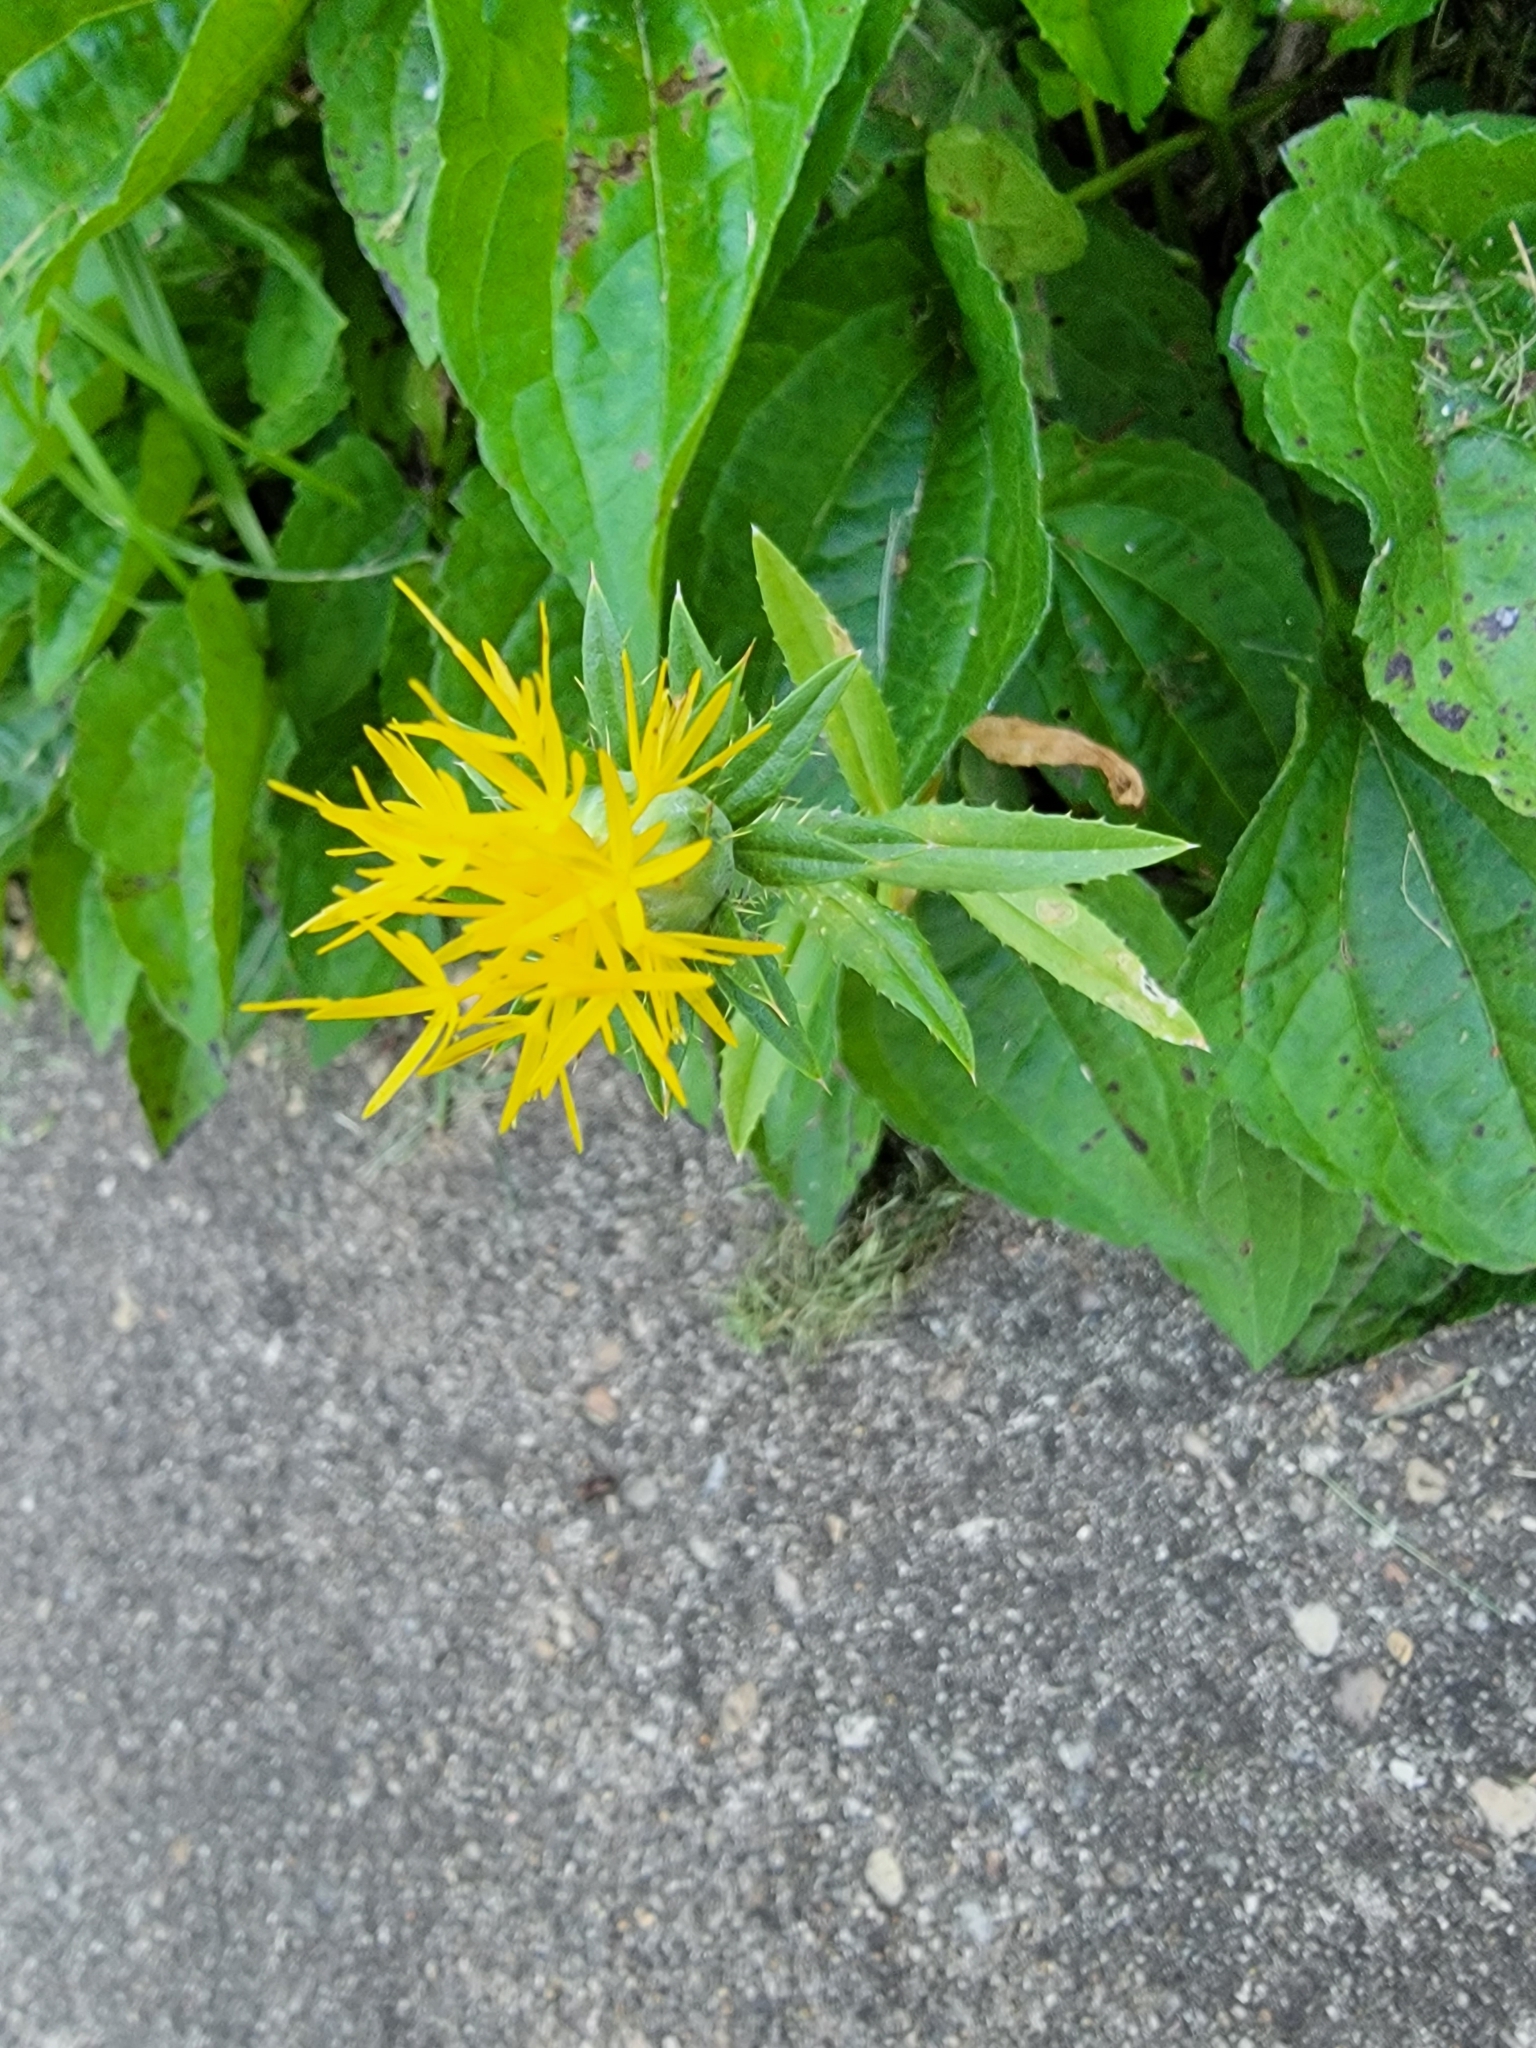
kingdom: Plantae
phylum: Tracheophyta
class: Magnoliopsida
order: Asterales
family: Asteraceae
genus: Carthamus
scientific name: Carthamus tinctorius
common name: Safflower
